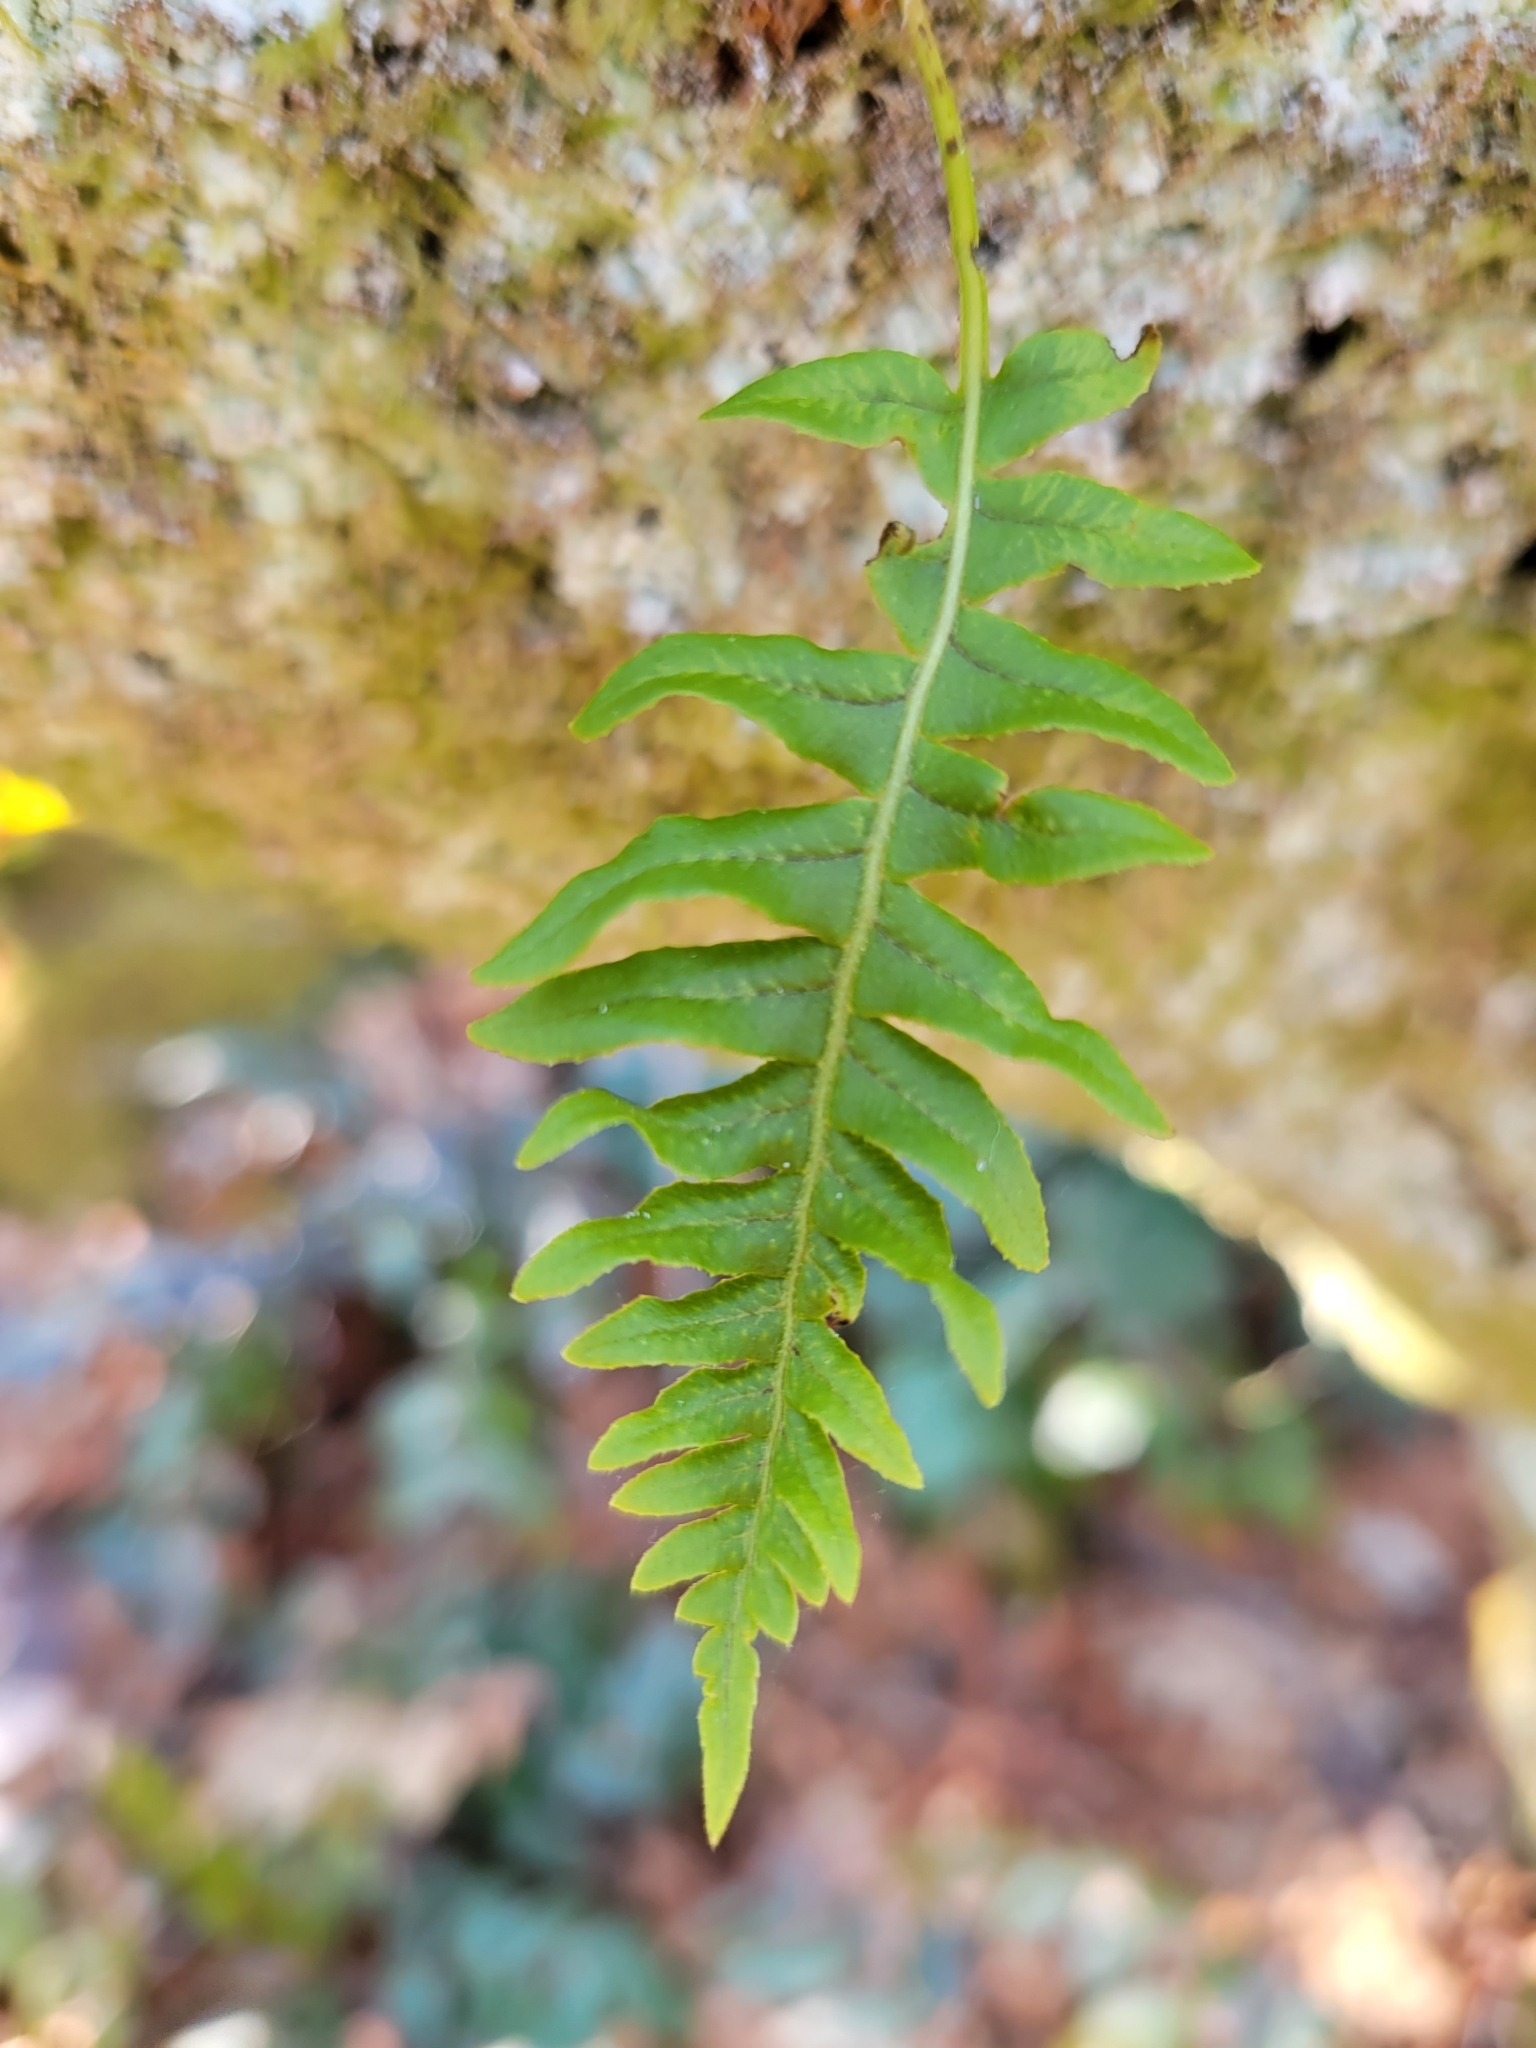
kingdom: Plantae
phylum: Tracheophyta
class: Polypodiopsida
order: Polypodiales
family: Polypodiaceae
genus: Polypodium
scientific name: Polypodium glycyrrhiza
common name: Licorice fern
